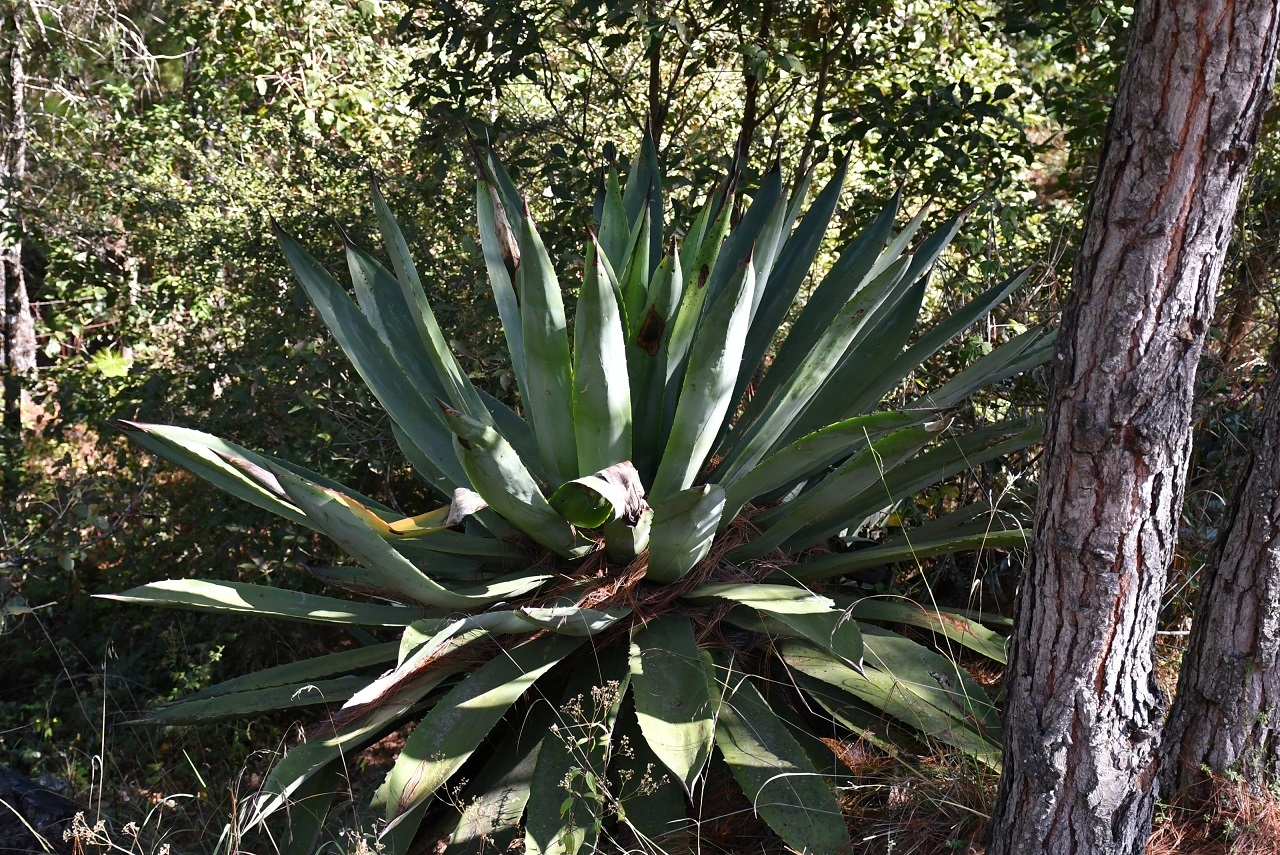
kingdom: Plantae
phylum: Tracheophyta
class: Liliopsida
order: Asparagales
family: Asparagaceae
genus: Agave
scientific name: Agave hiemiflora
